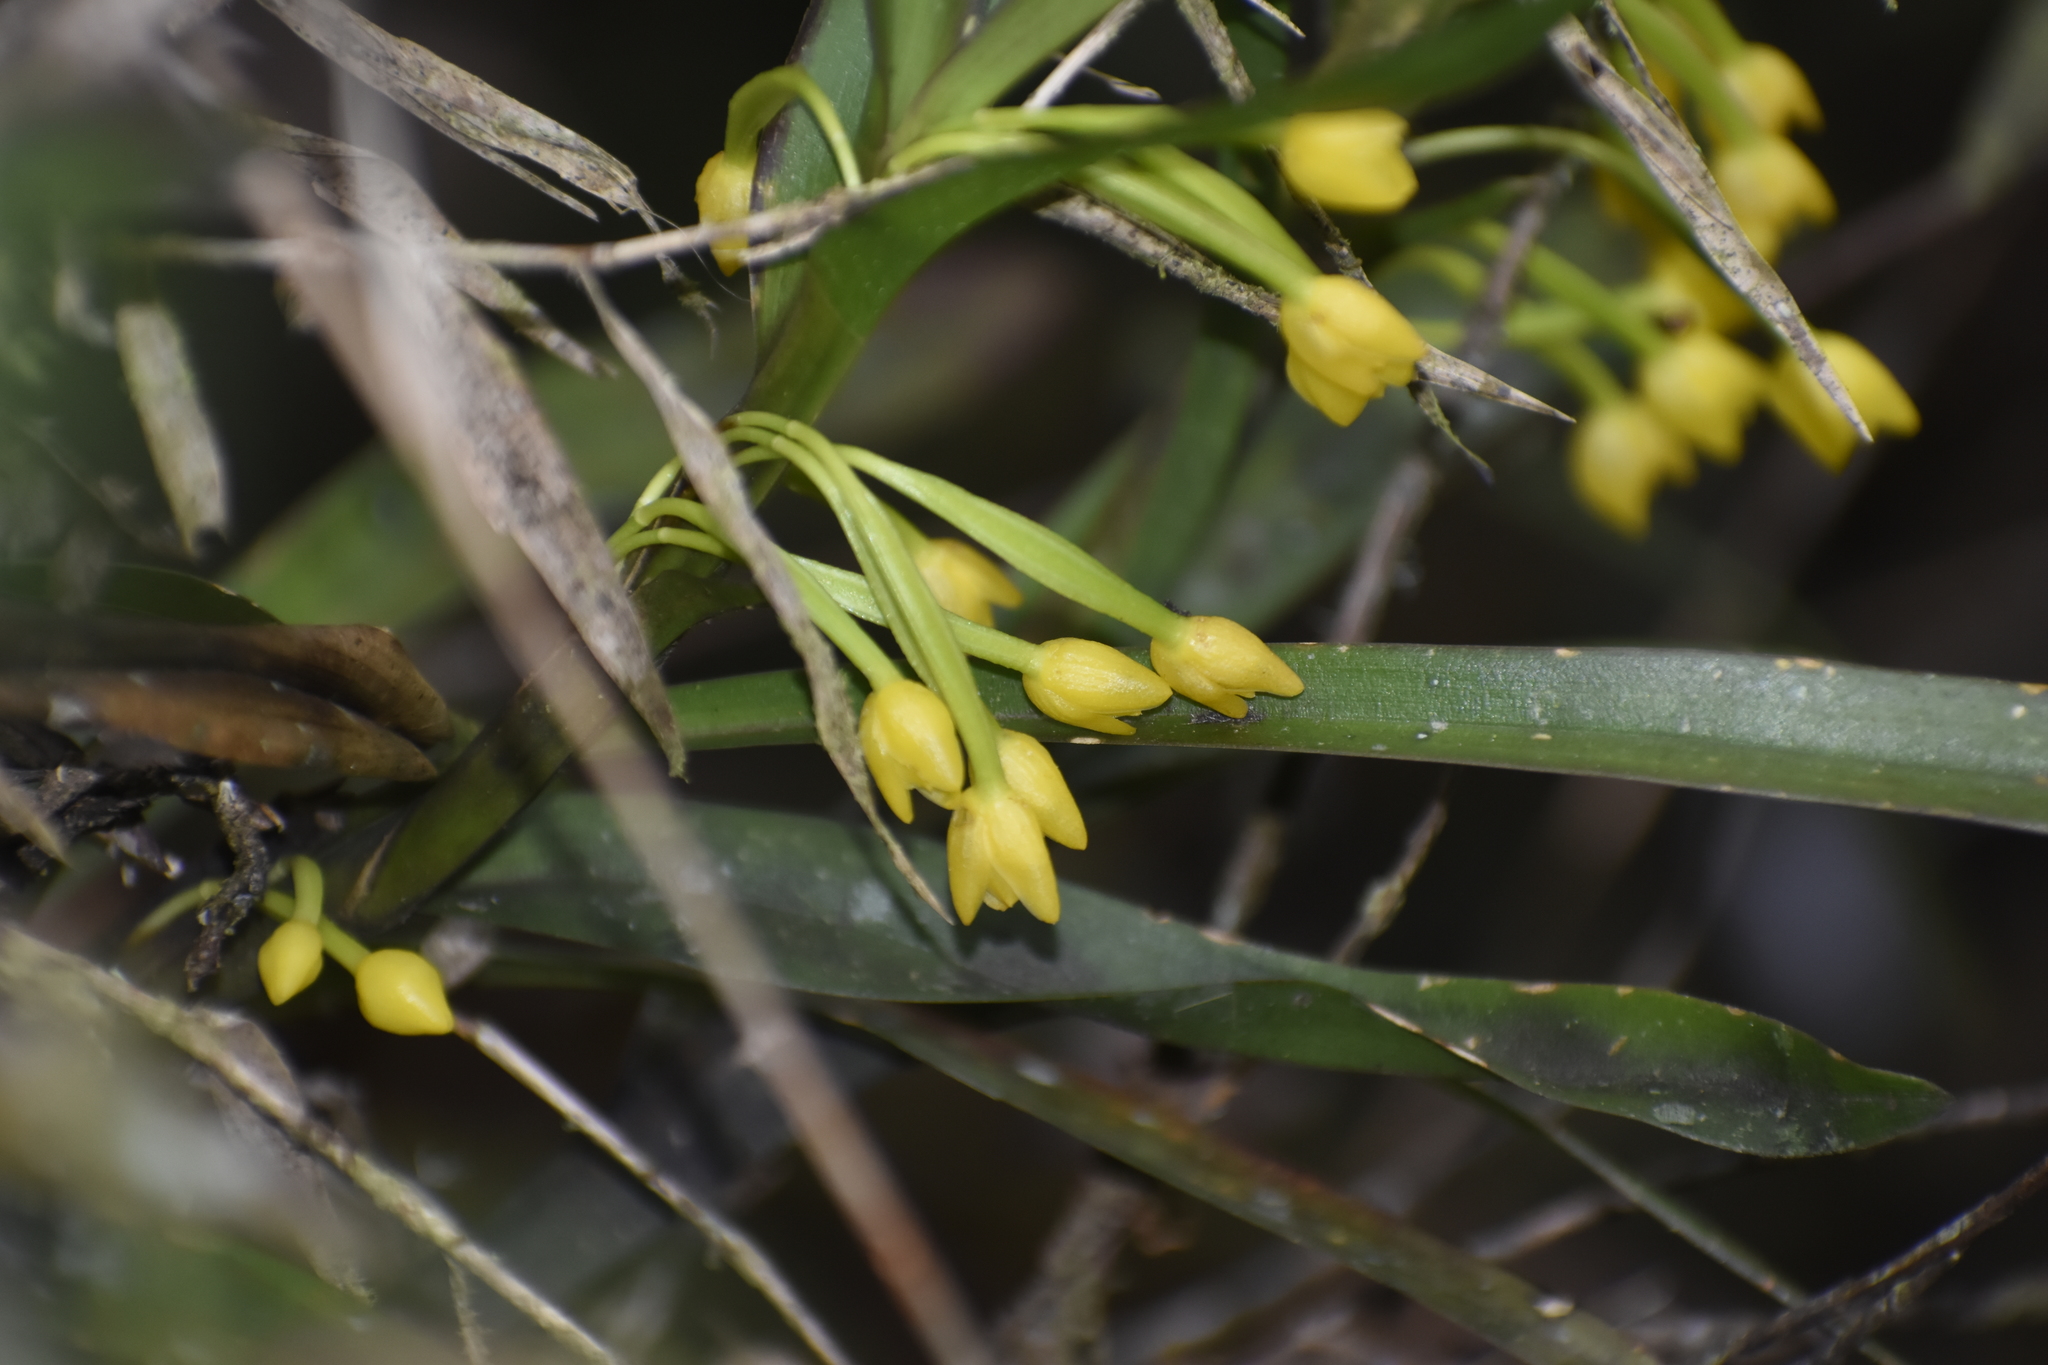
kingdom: Plantae
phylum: Tracheophyta
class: Liliopsida
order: Asparagales
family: Orchidaceae
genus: Maxillaria
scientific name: Maxillaria alticola
